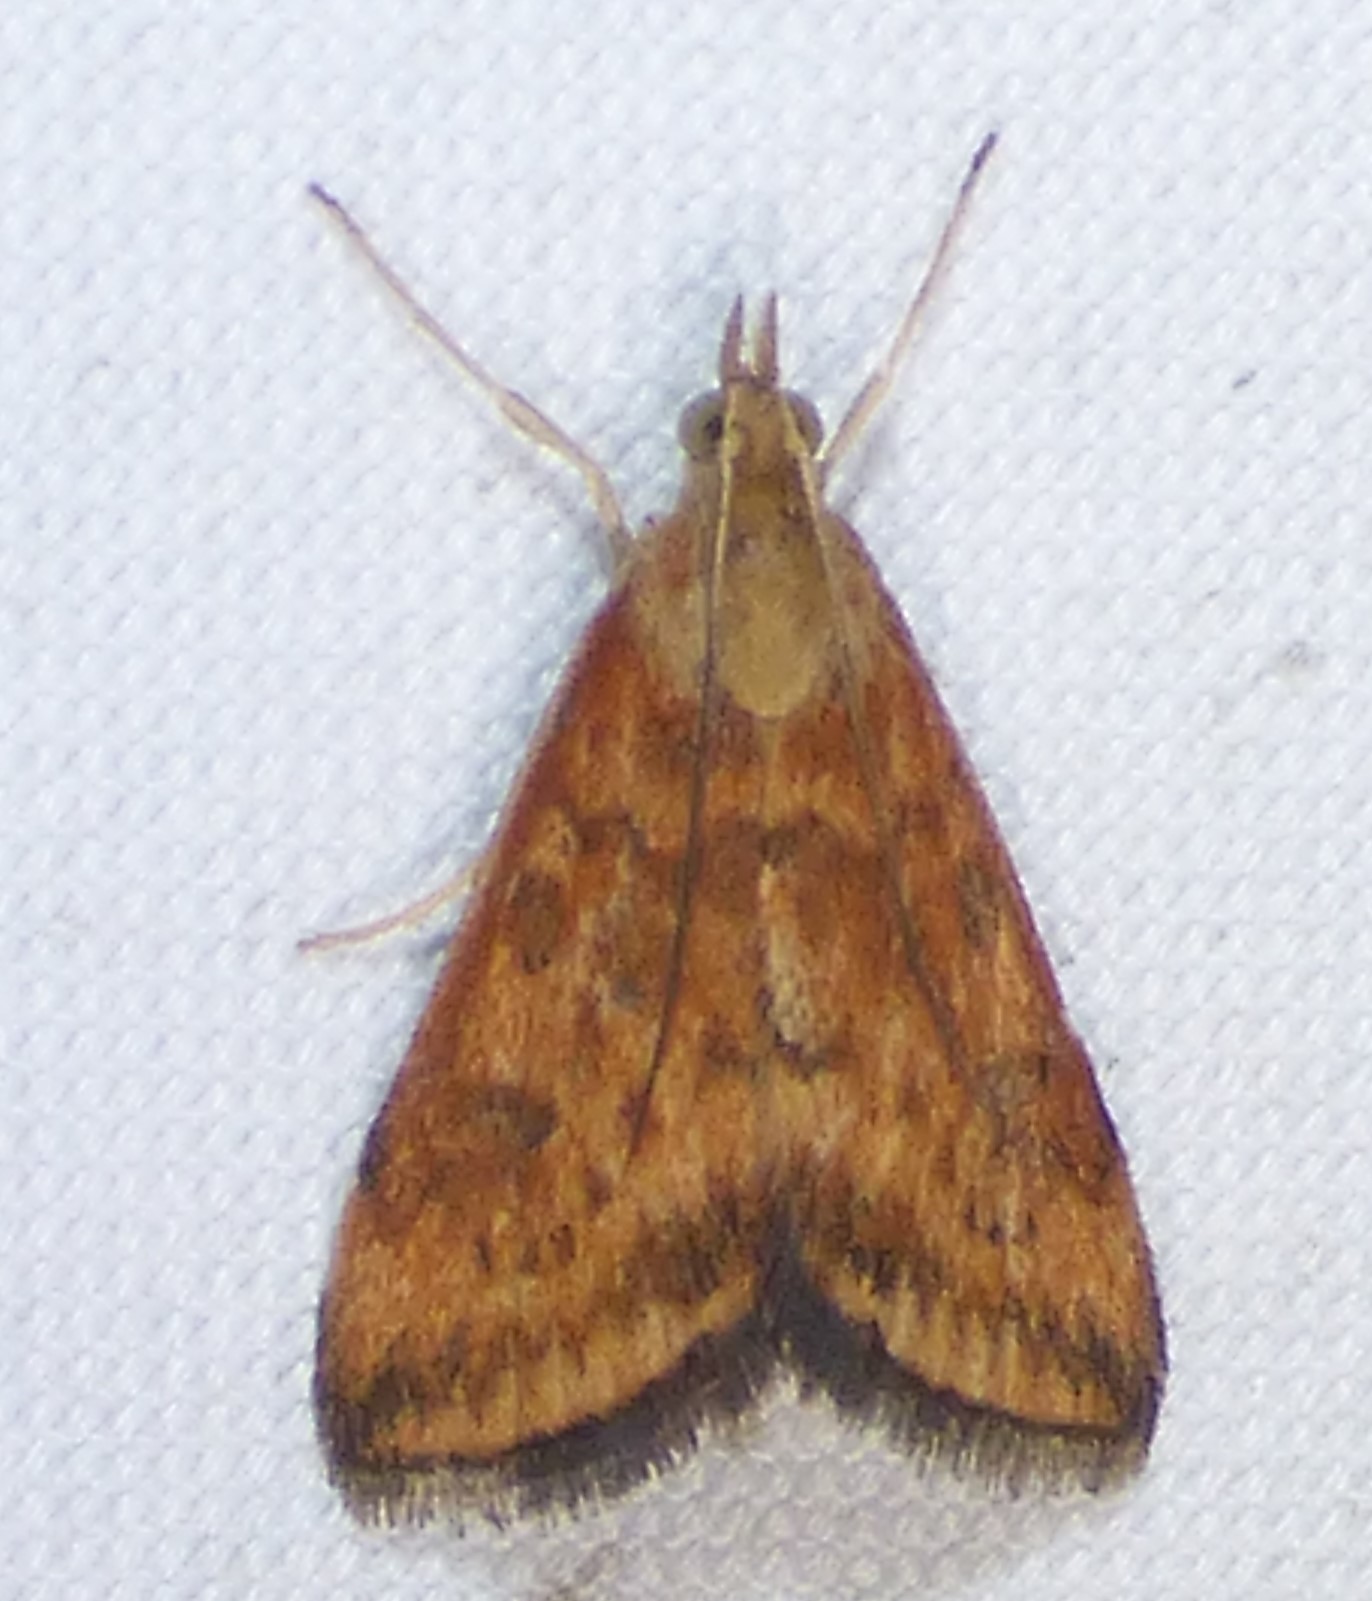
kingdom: Animalia
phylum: Arthropoda
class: Insecta
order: Lepidoptera
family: Crambidae
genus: Pyrausta
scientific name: Pyrausta subsequalis
